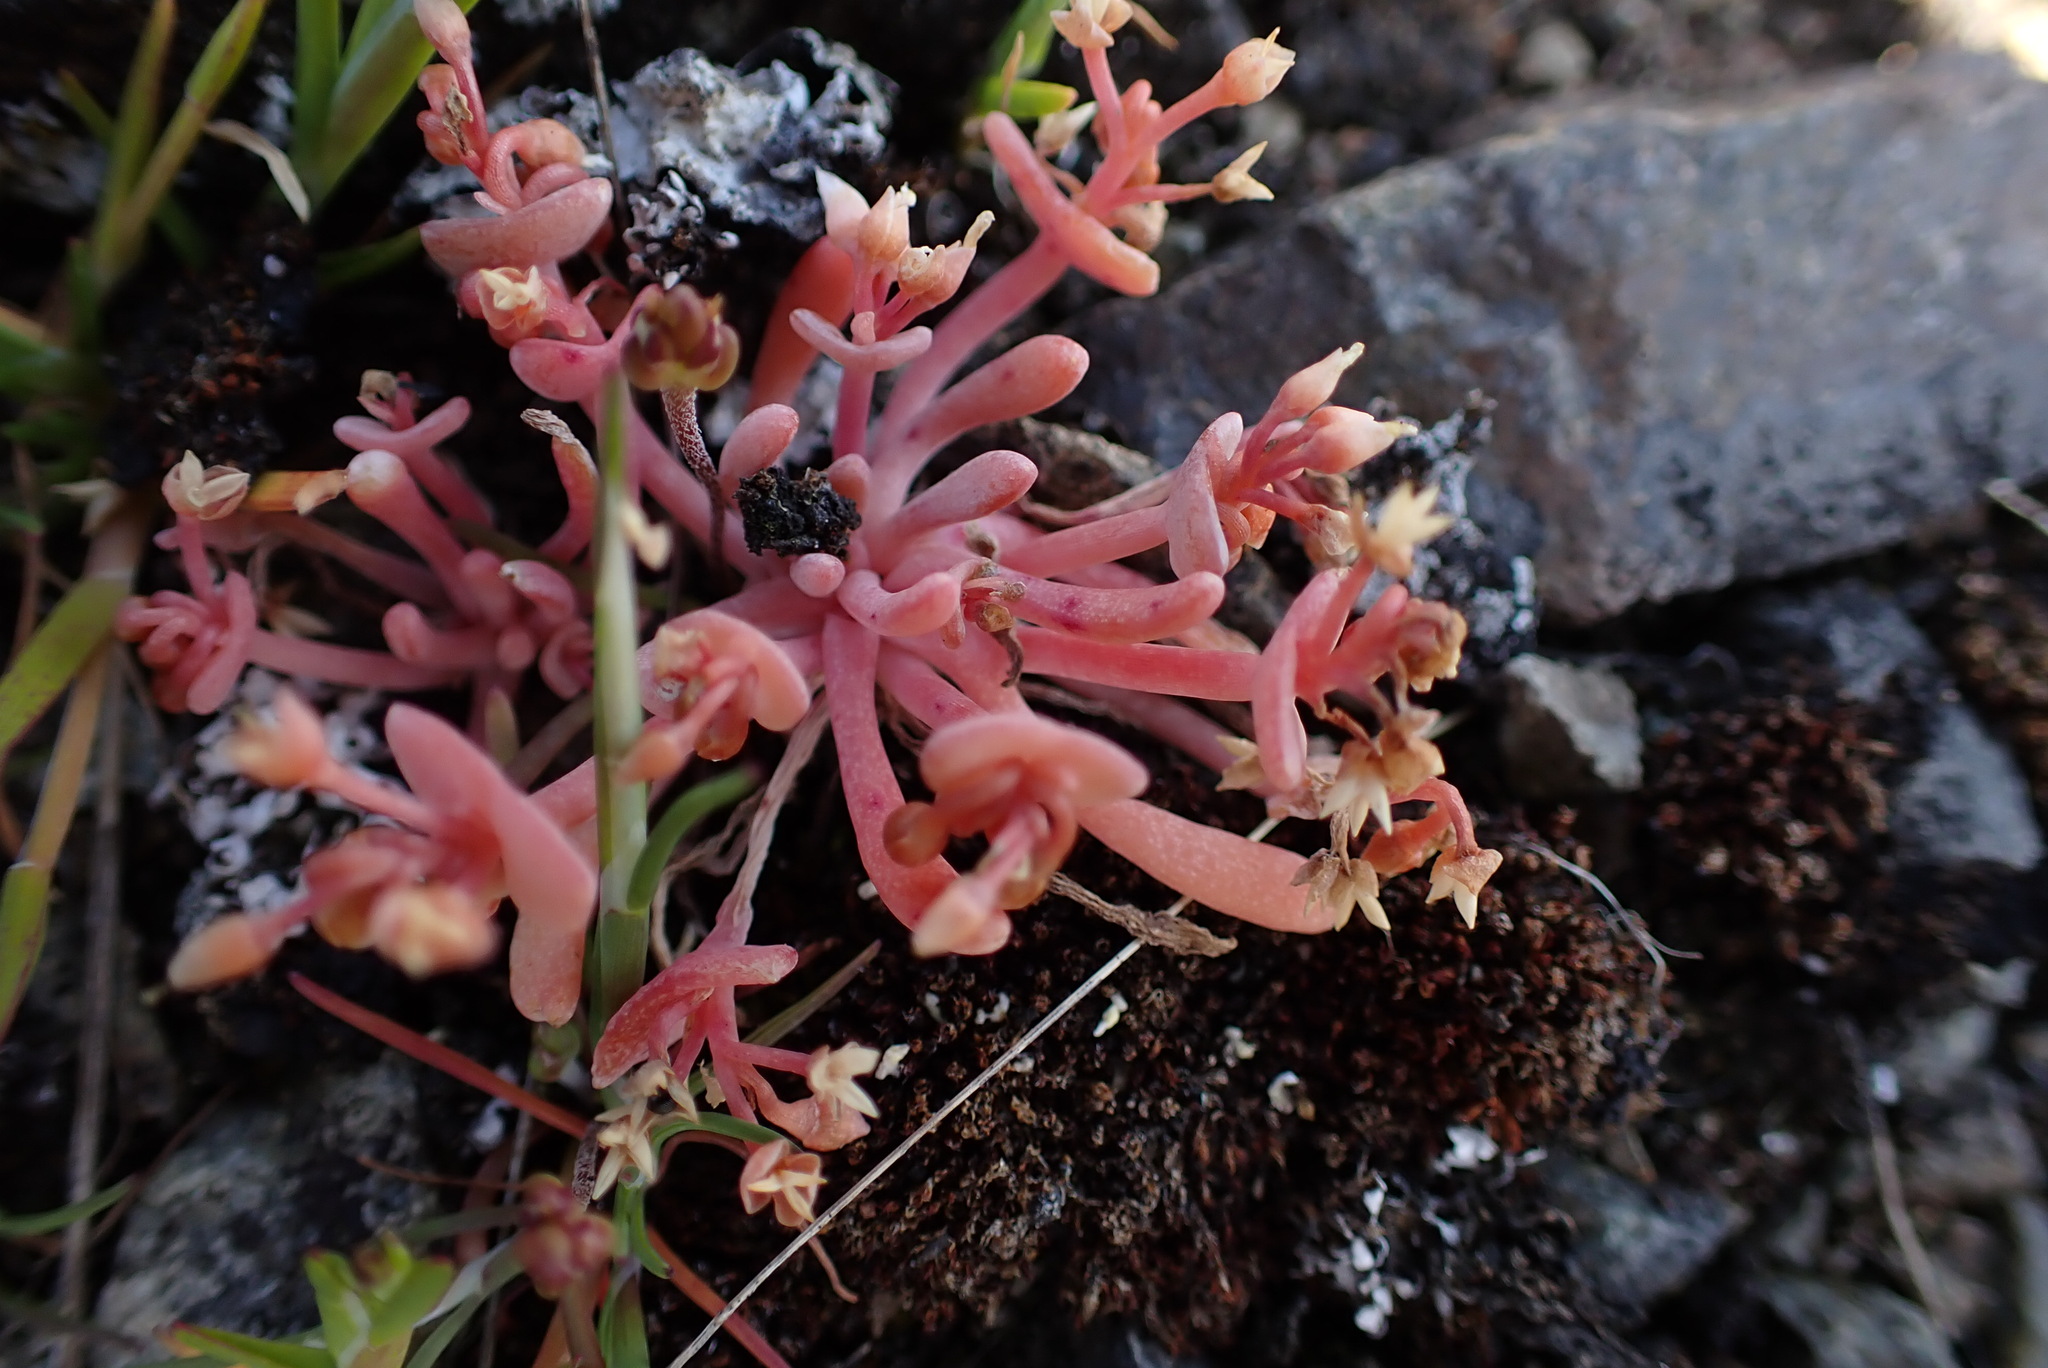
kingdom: Plantae
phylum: Tracheophyta
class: Magnoliopsida
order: Caryophyllales
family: Montiaceae
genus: Claytonia
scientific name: Claytonia exigua
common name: Pale spring beauty
